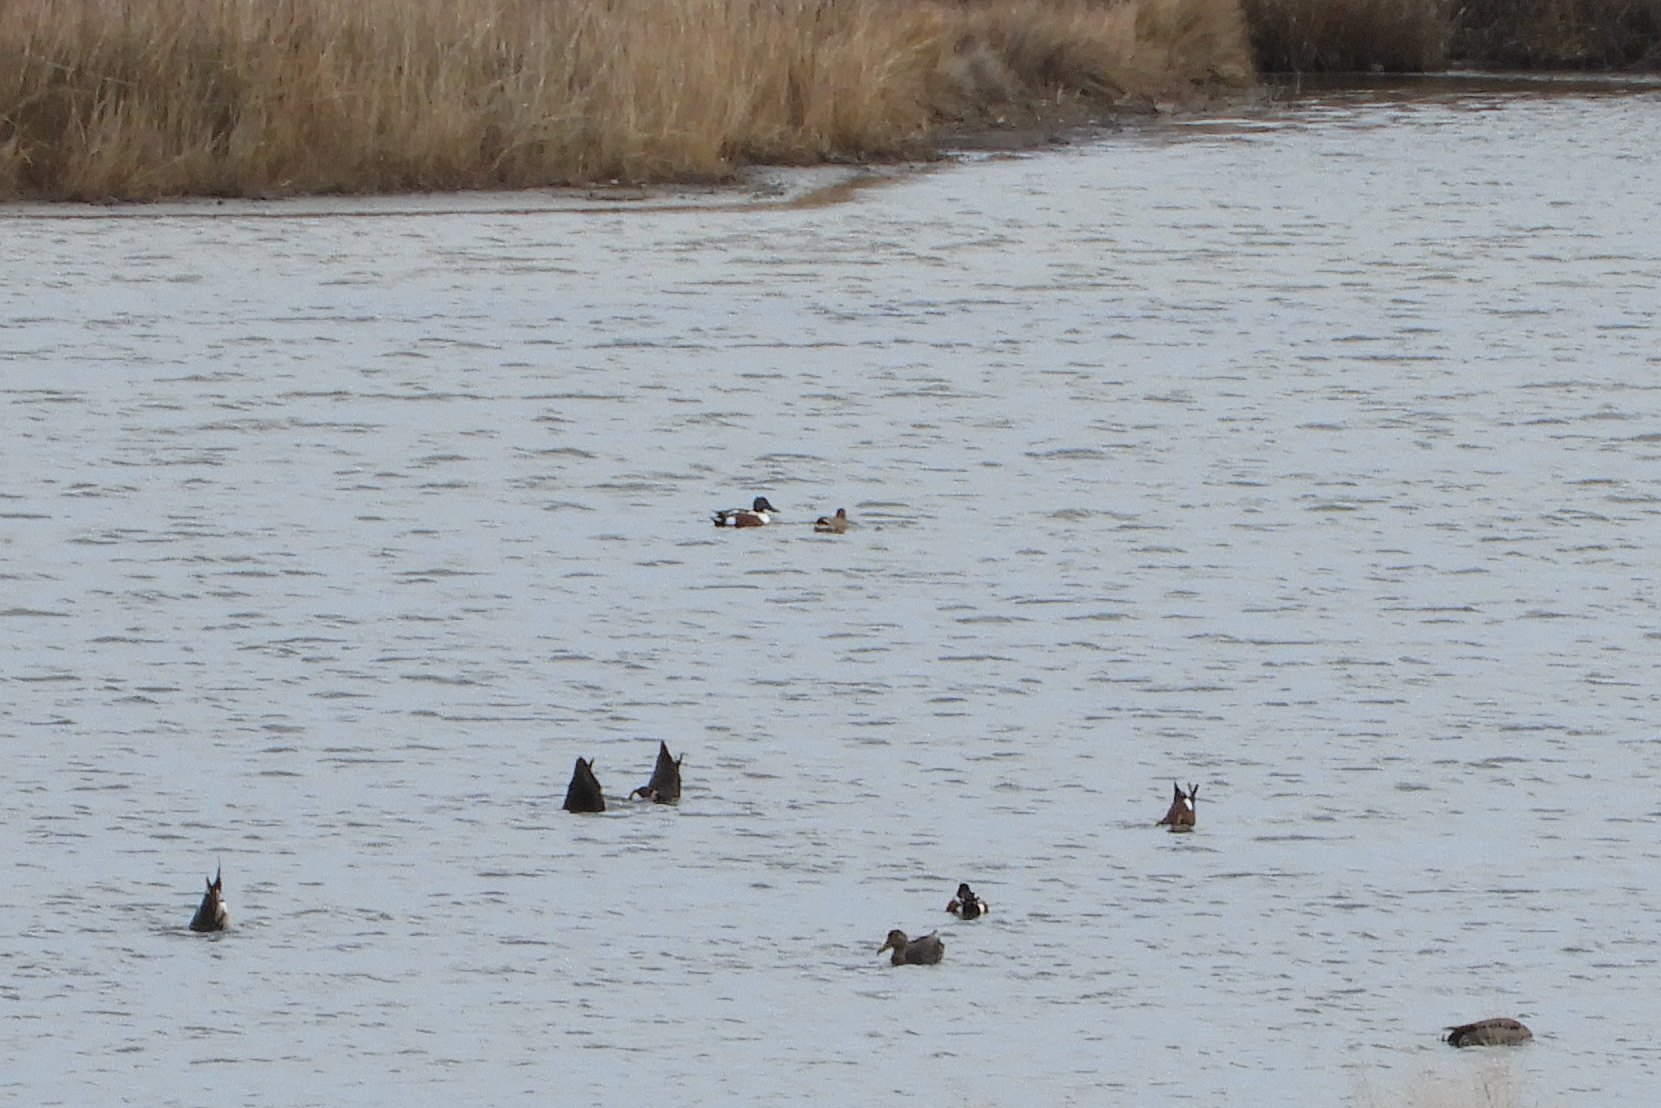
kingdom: Animalia
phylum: Chordata
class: Aves
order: Anseriformes
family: Anatidae
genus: Spatula
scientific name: Spatula clypeata
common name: Northern shoveler
